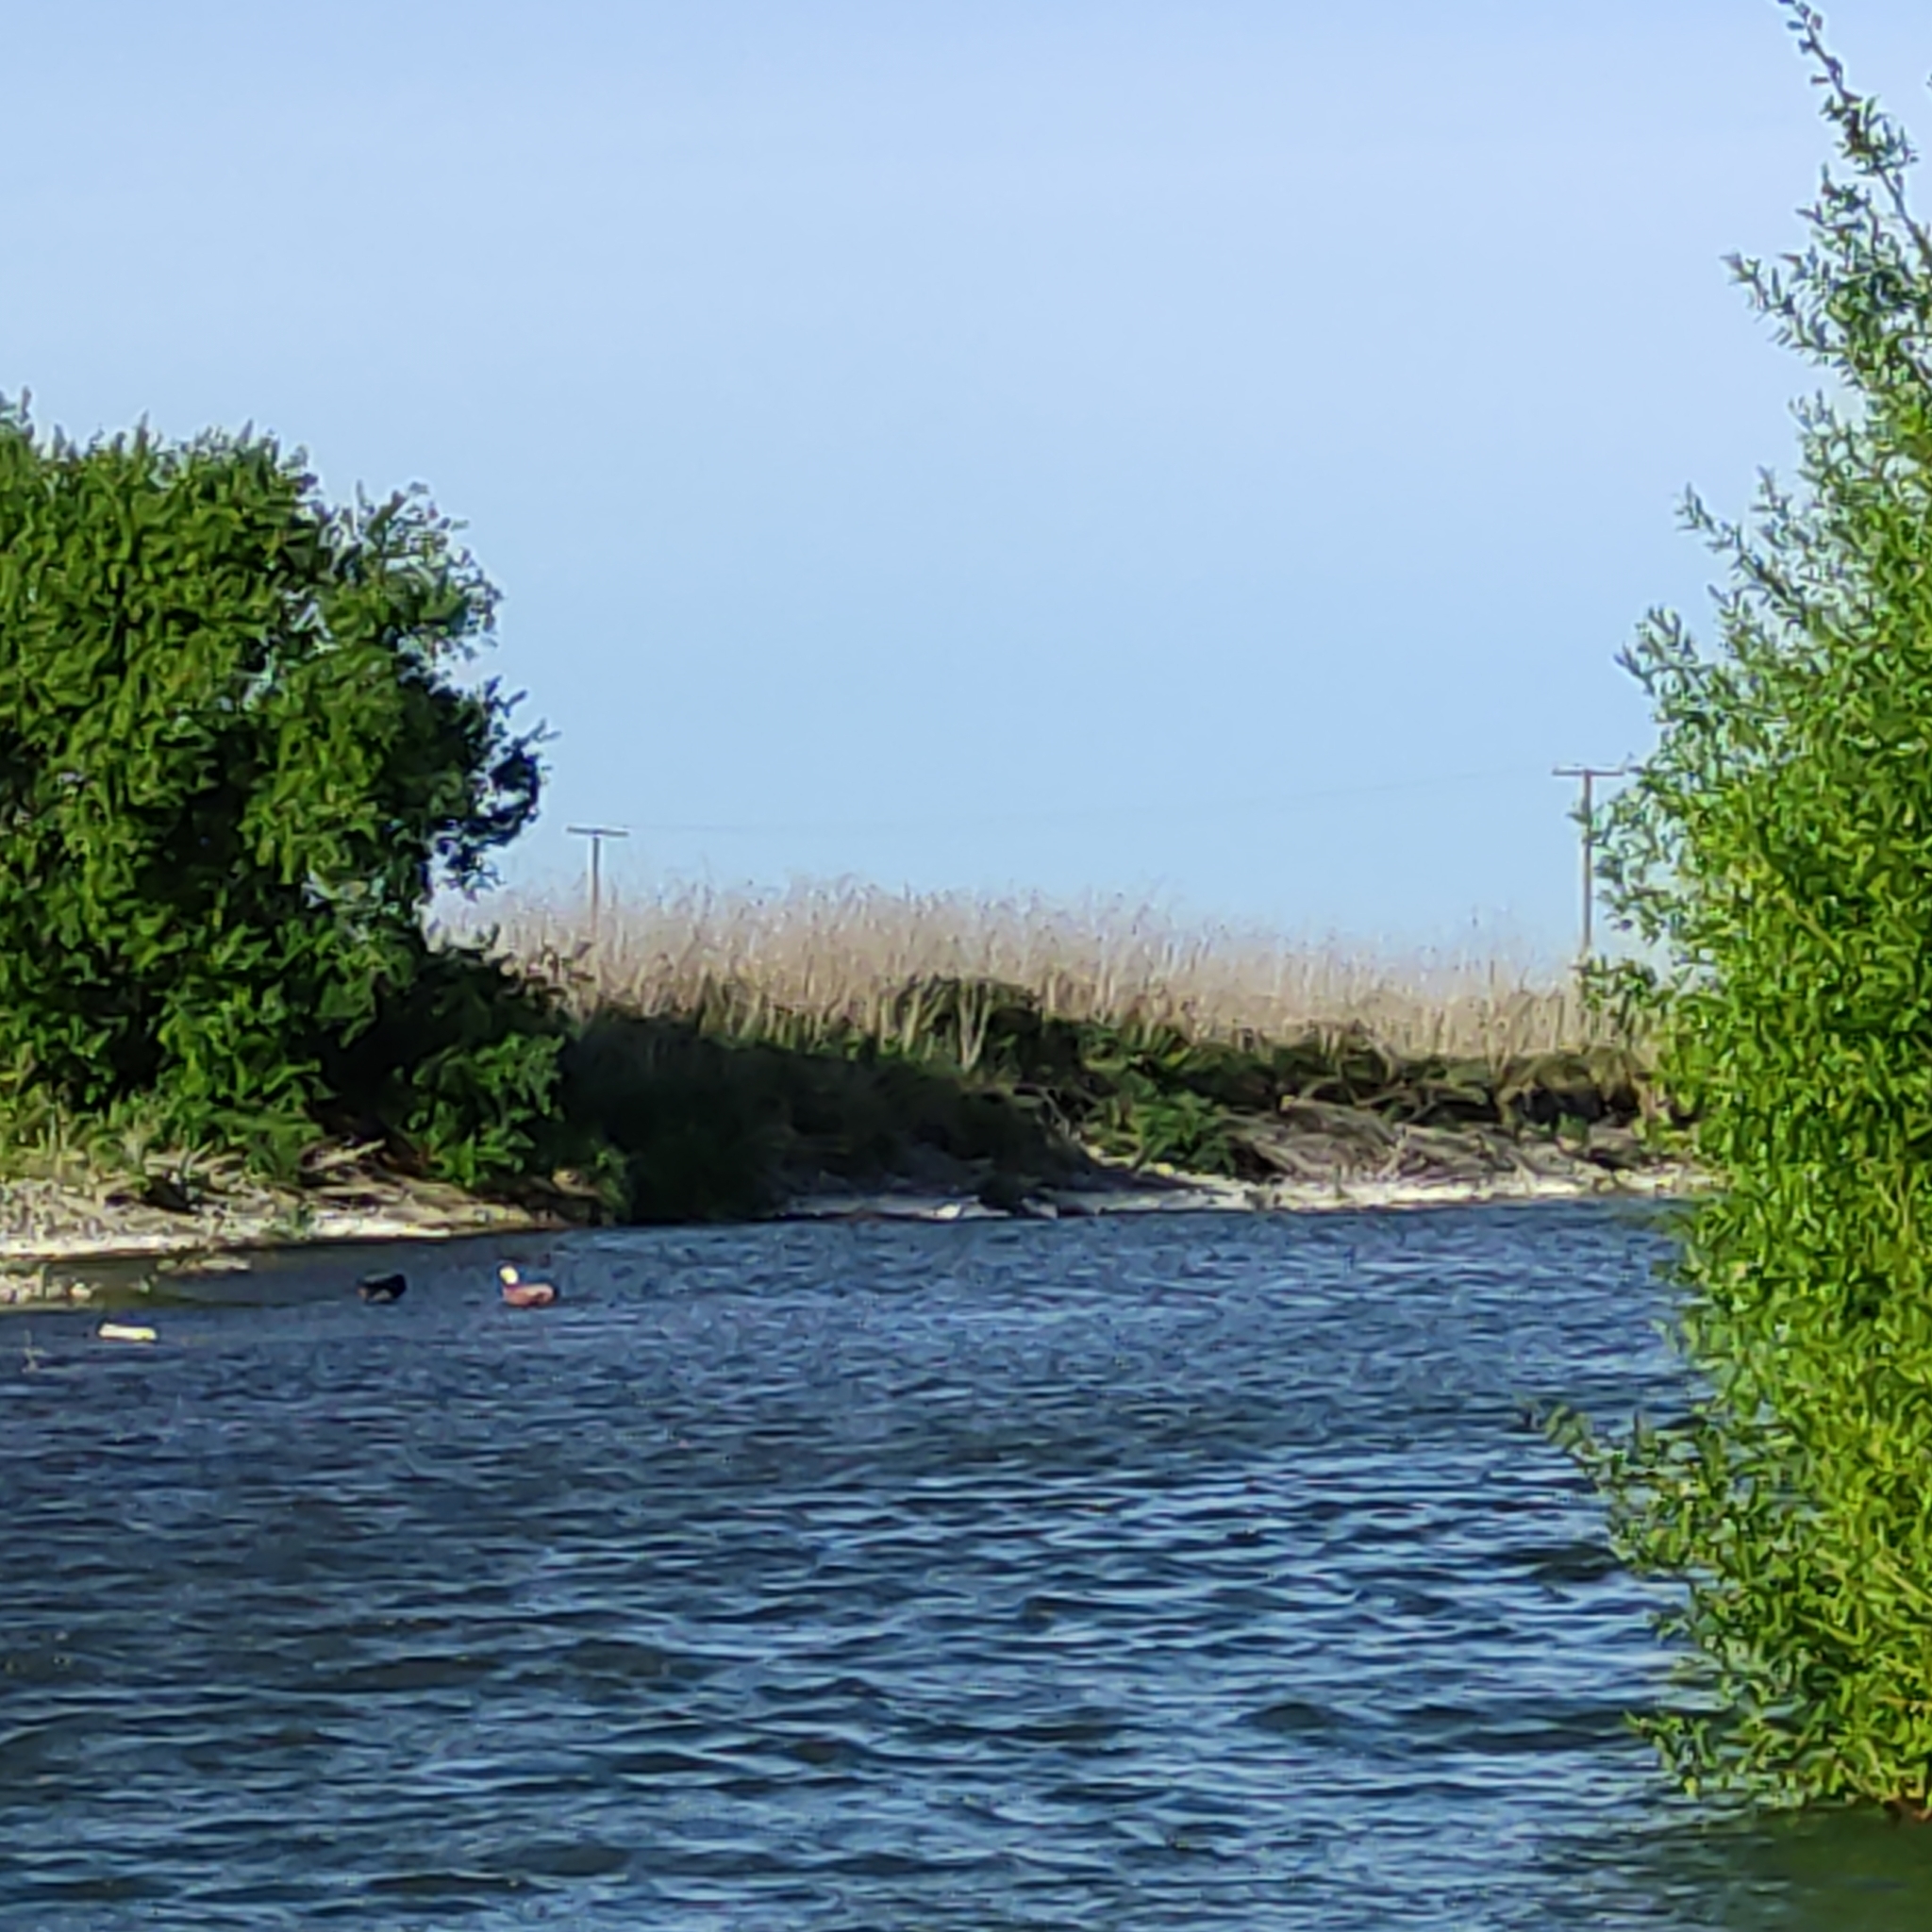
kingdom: Animalia
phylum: Chordata
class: Aves
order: Anseriformes
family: Anatidae
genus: Tadorna
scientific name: Tadorna variegata
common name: Paradise shelduck
